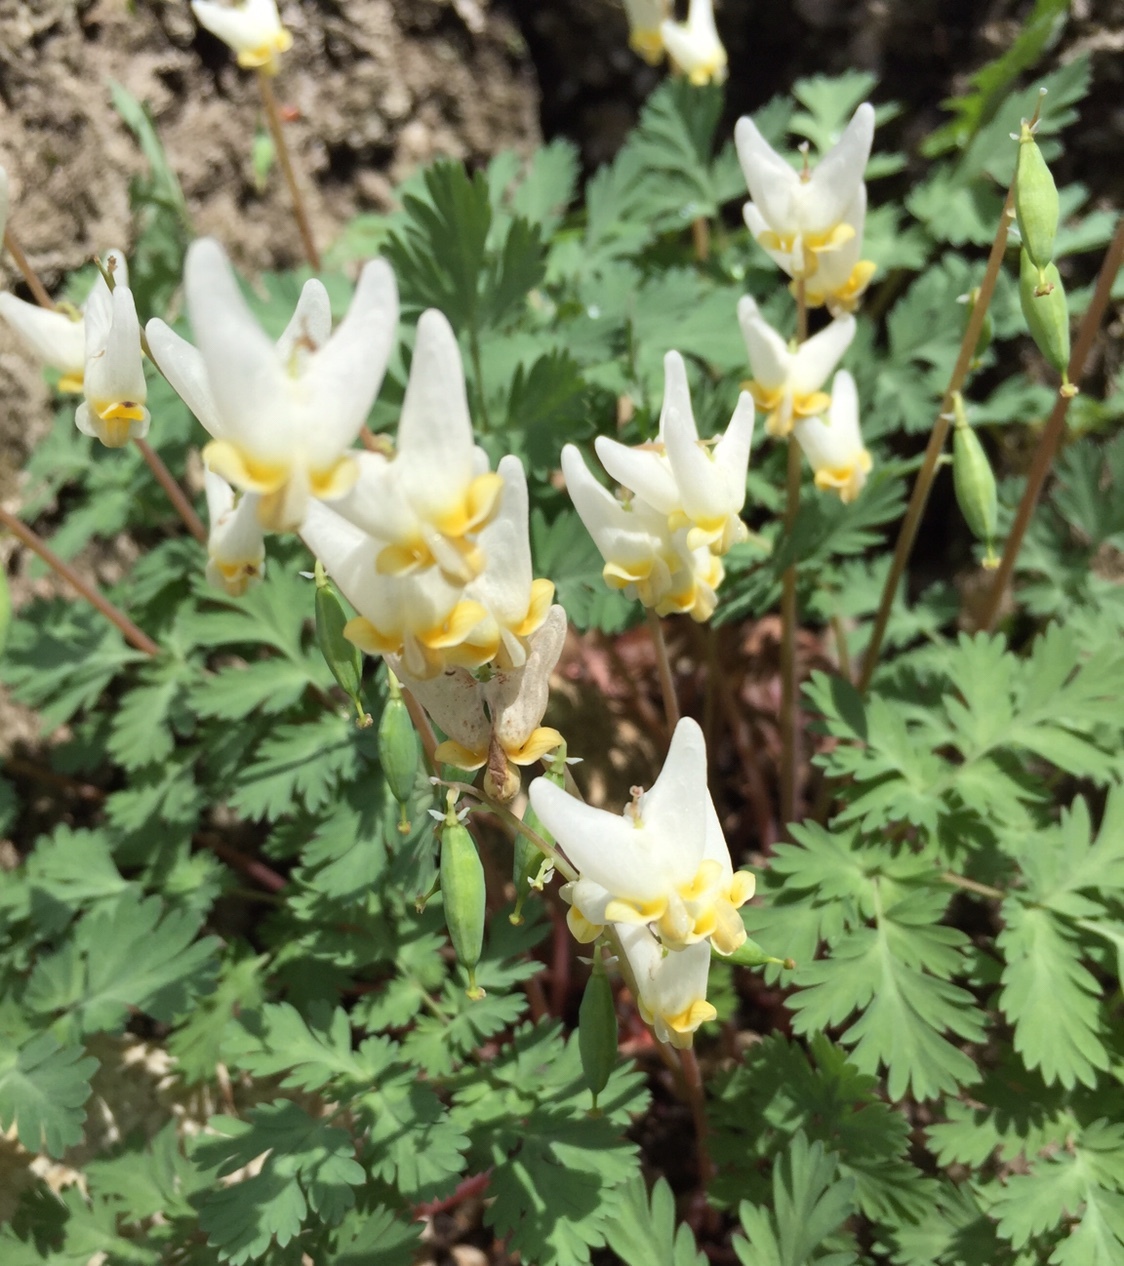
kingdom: Plantae
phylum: Tracheophyta
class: Magnoliopsida
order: Ranunculales
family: Papaveraceae
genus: Dicentra
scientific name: Dicentra cucullaria
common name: Dutchman's breeches
